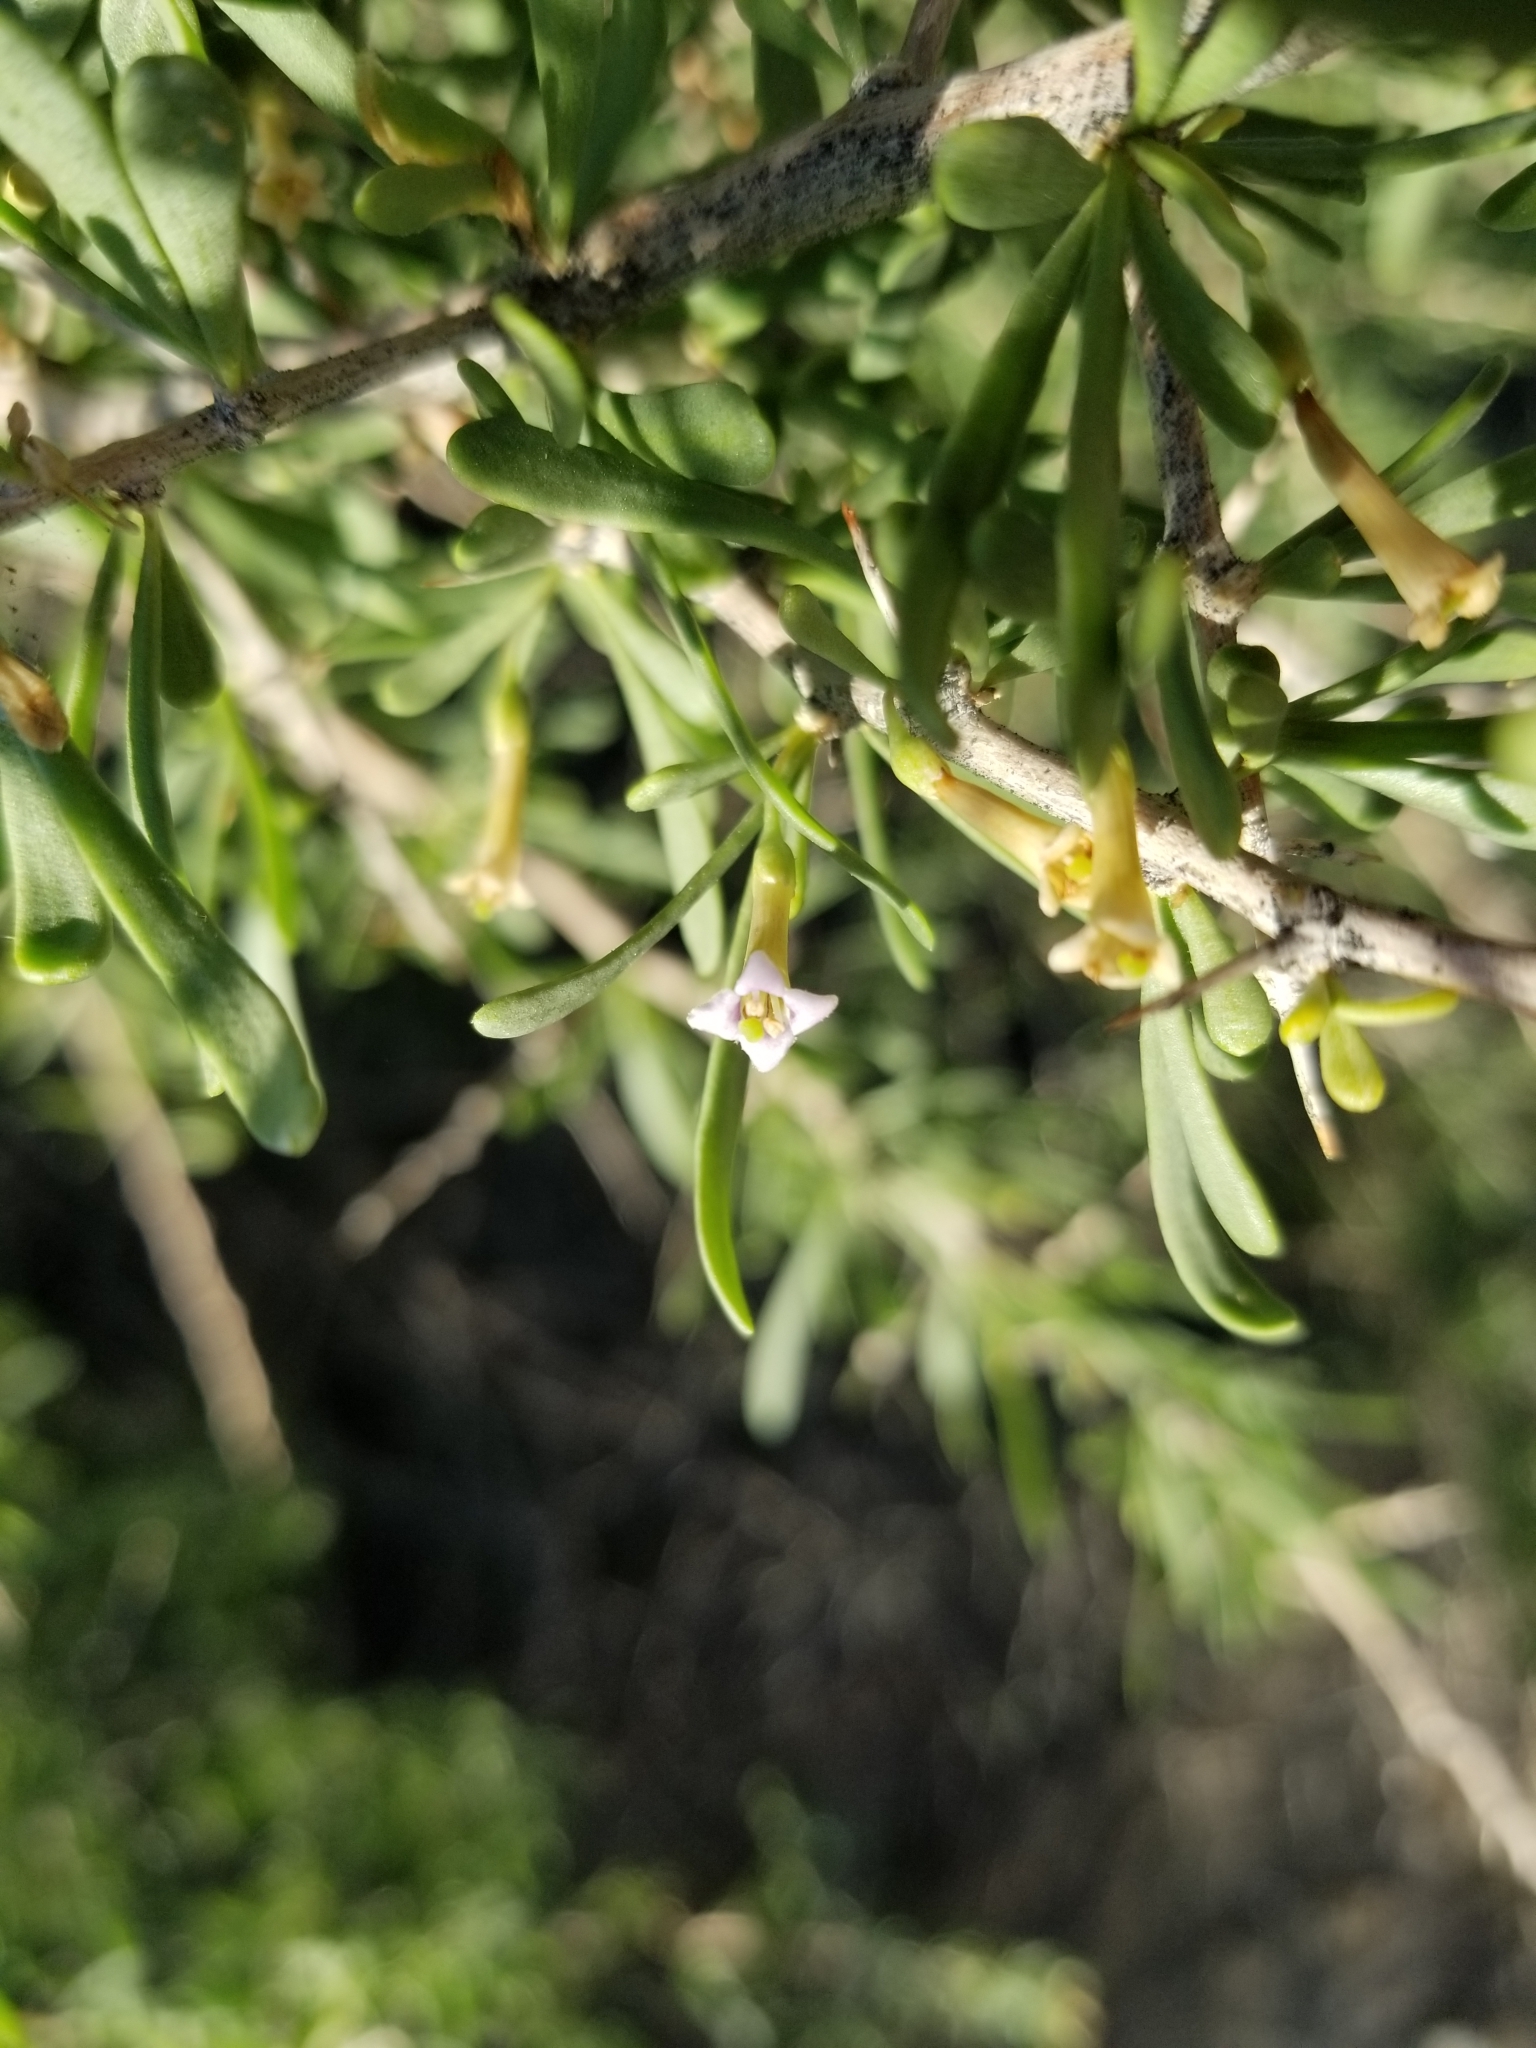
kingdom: Plantae
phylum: Tracheophyta
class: Magnoliopsida
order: Solanales
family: Solanaceae
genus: Lycium
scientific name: Lycium andersonii
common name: Water-jacket
